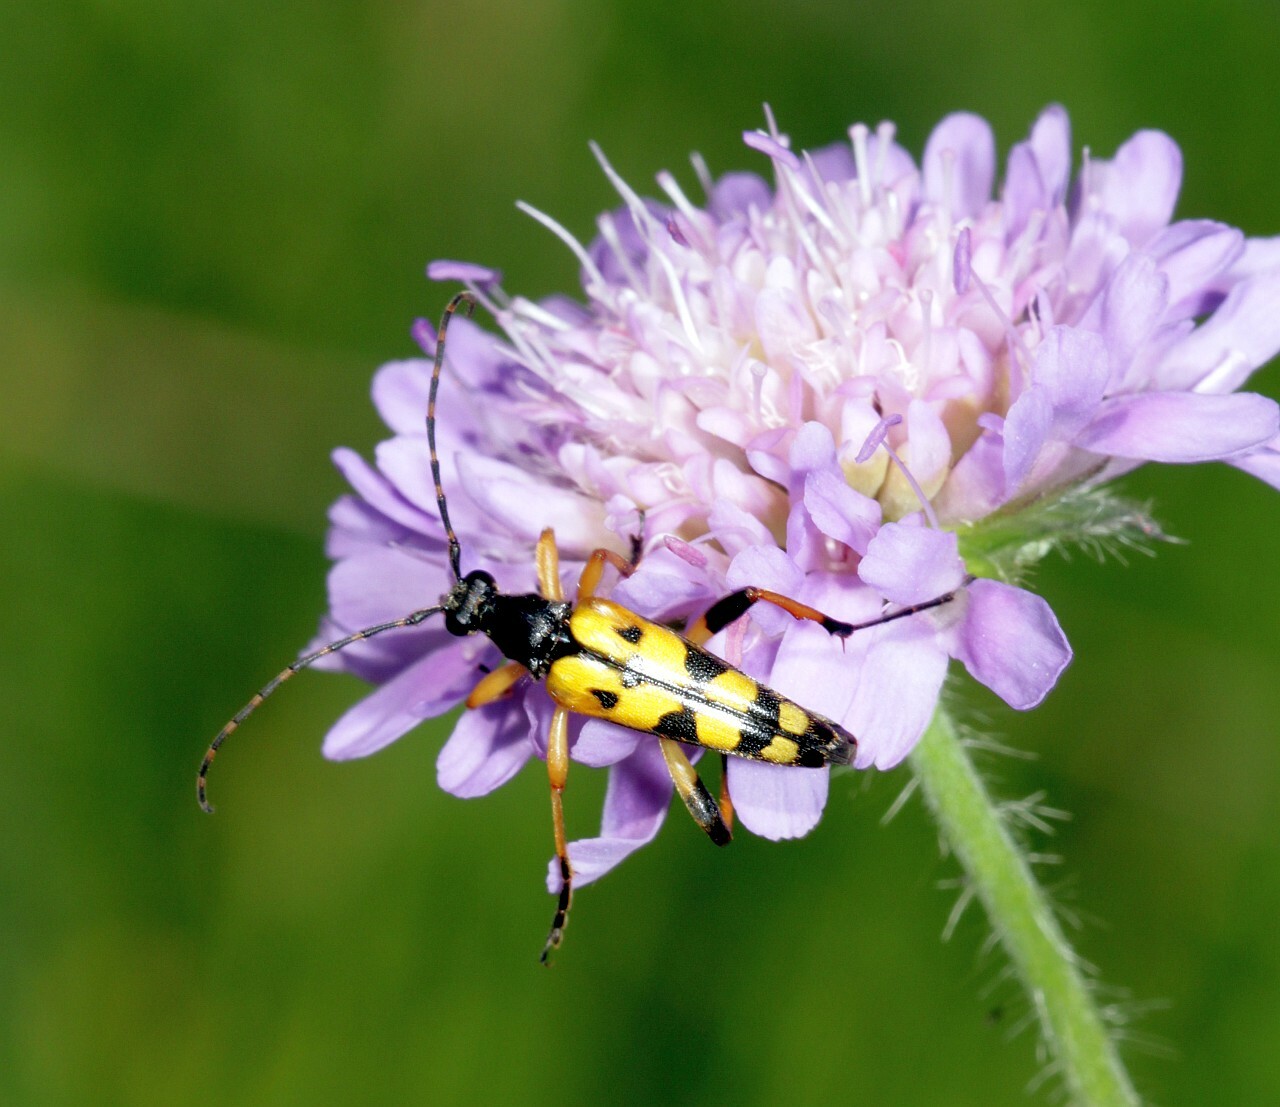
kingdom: Animalia
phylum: Arthropoda
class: Insecta
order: Coleoptera
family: Cerambycidae
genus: Rutpela
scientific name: Rutpela maculata
